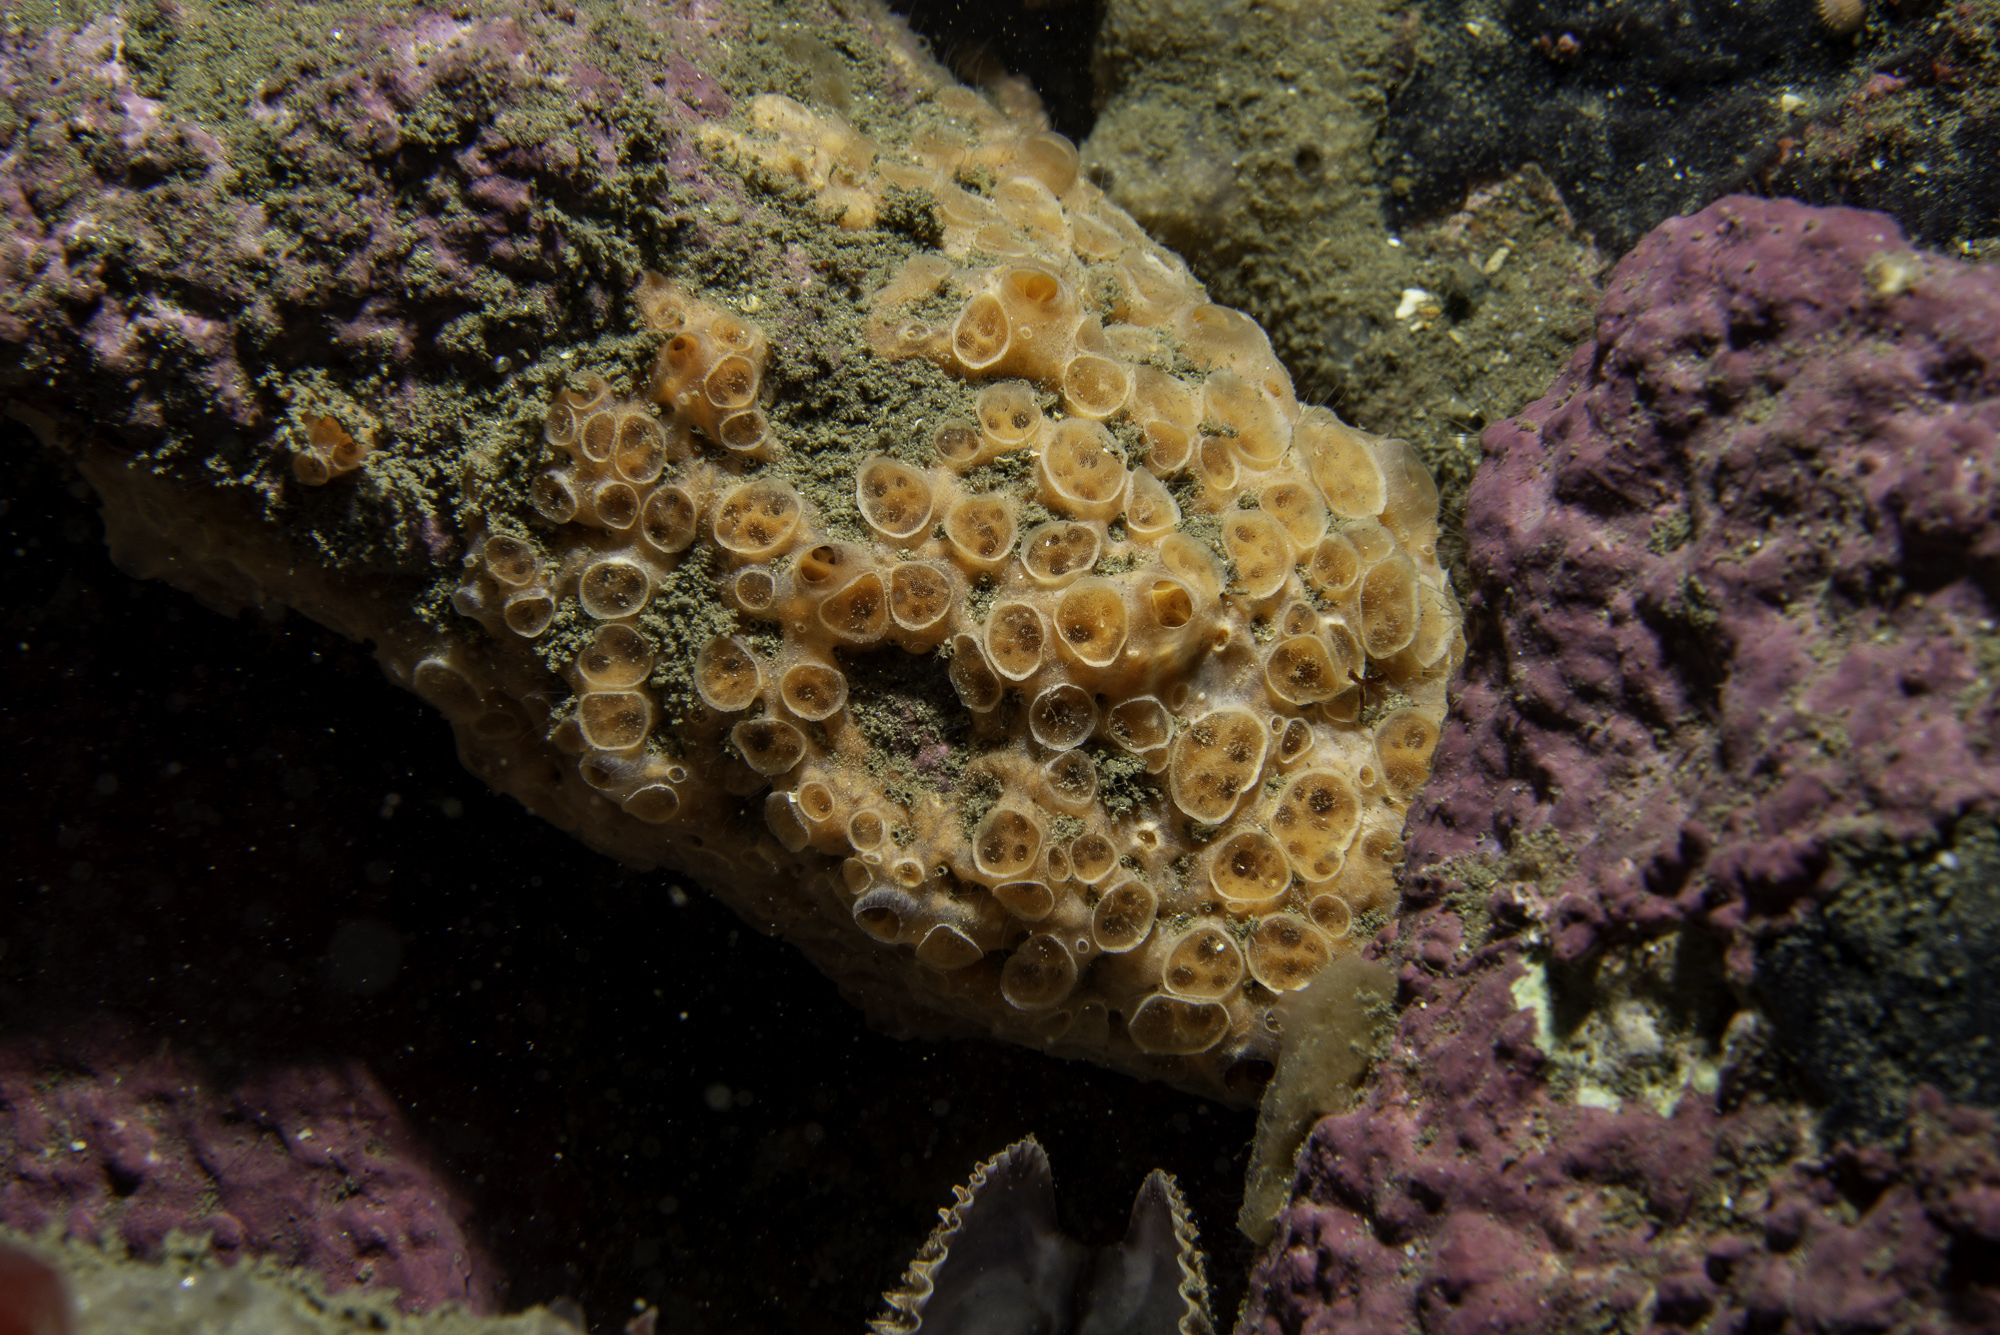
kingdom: Animalia
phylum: Porifera
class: Demospongiae
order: Poecilosclerida
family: Hymedesmiidae
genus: Hemimycale
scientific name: Hemimycale columella
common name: Crater sponge
